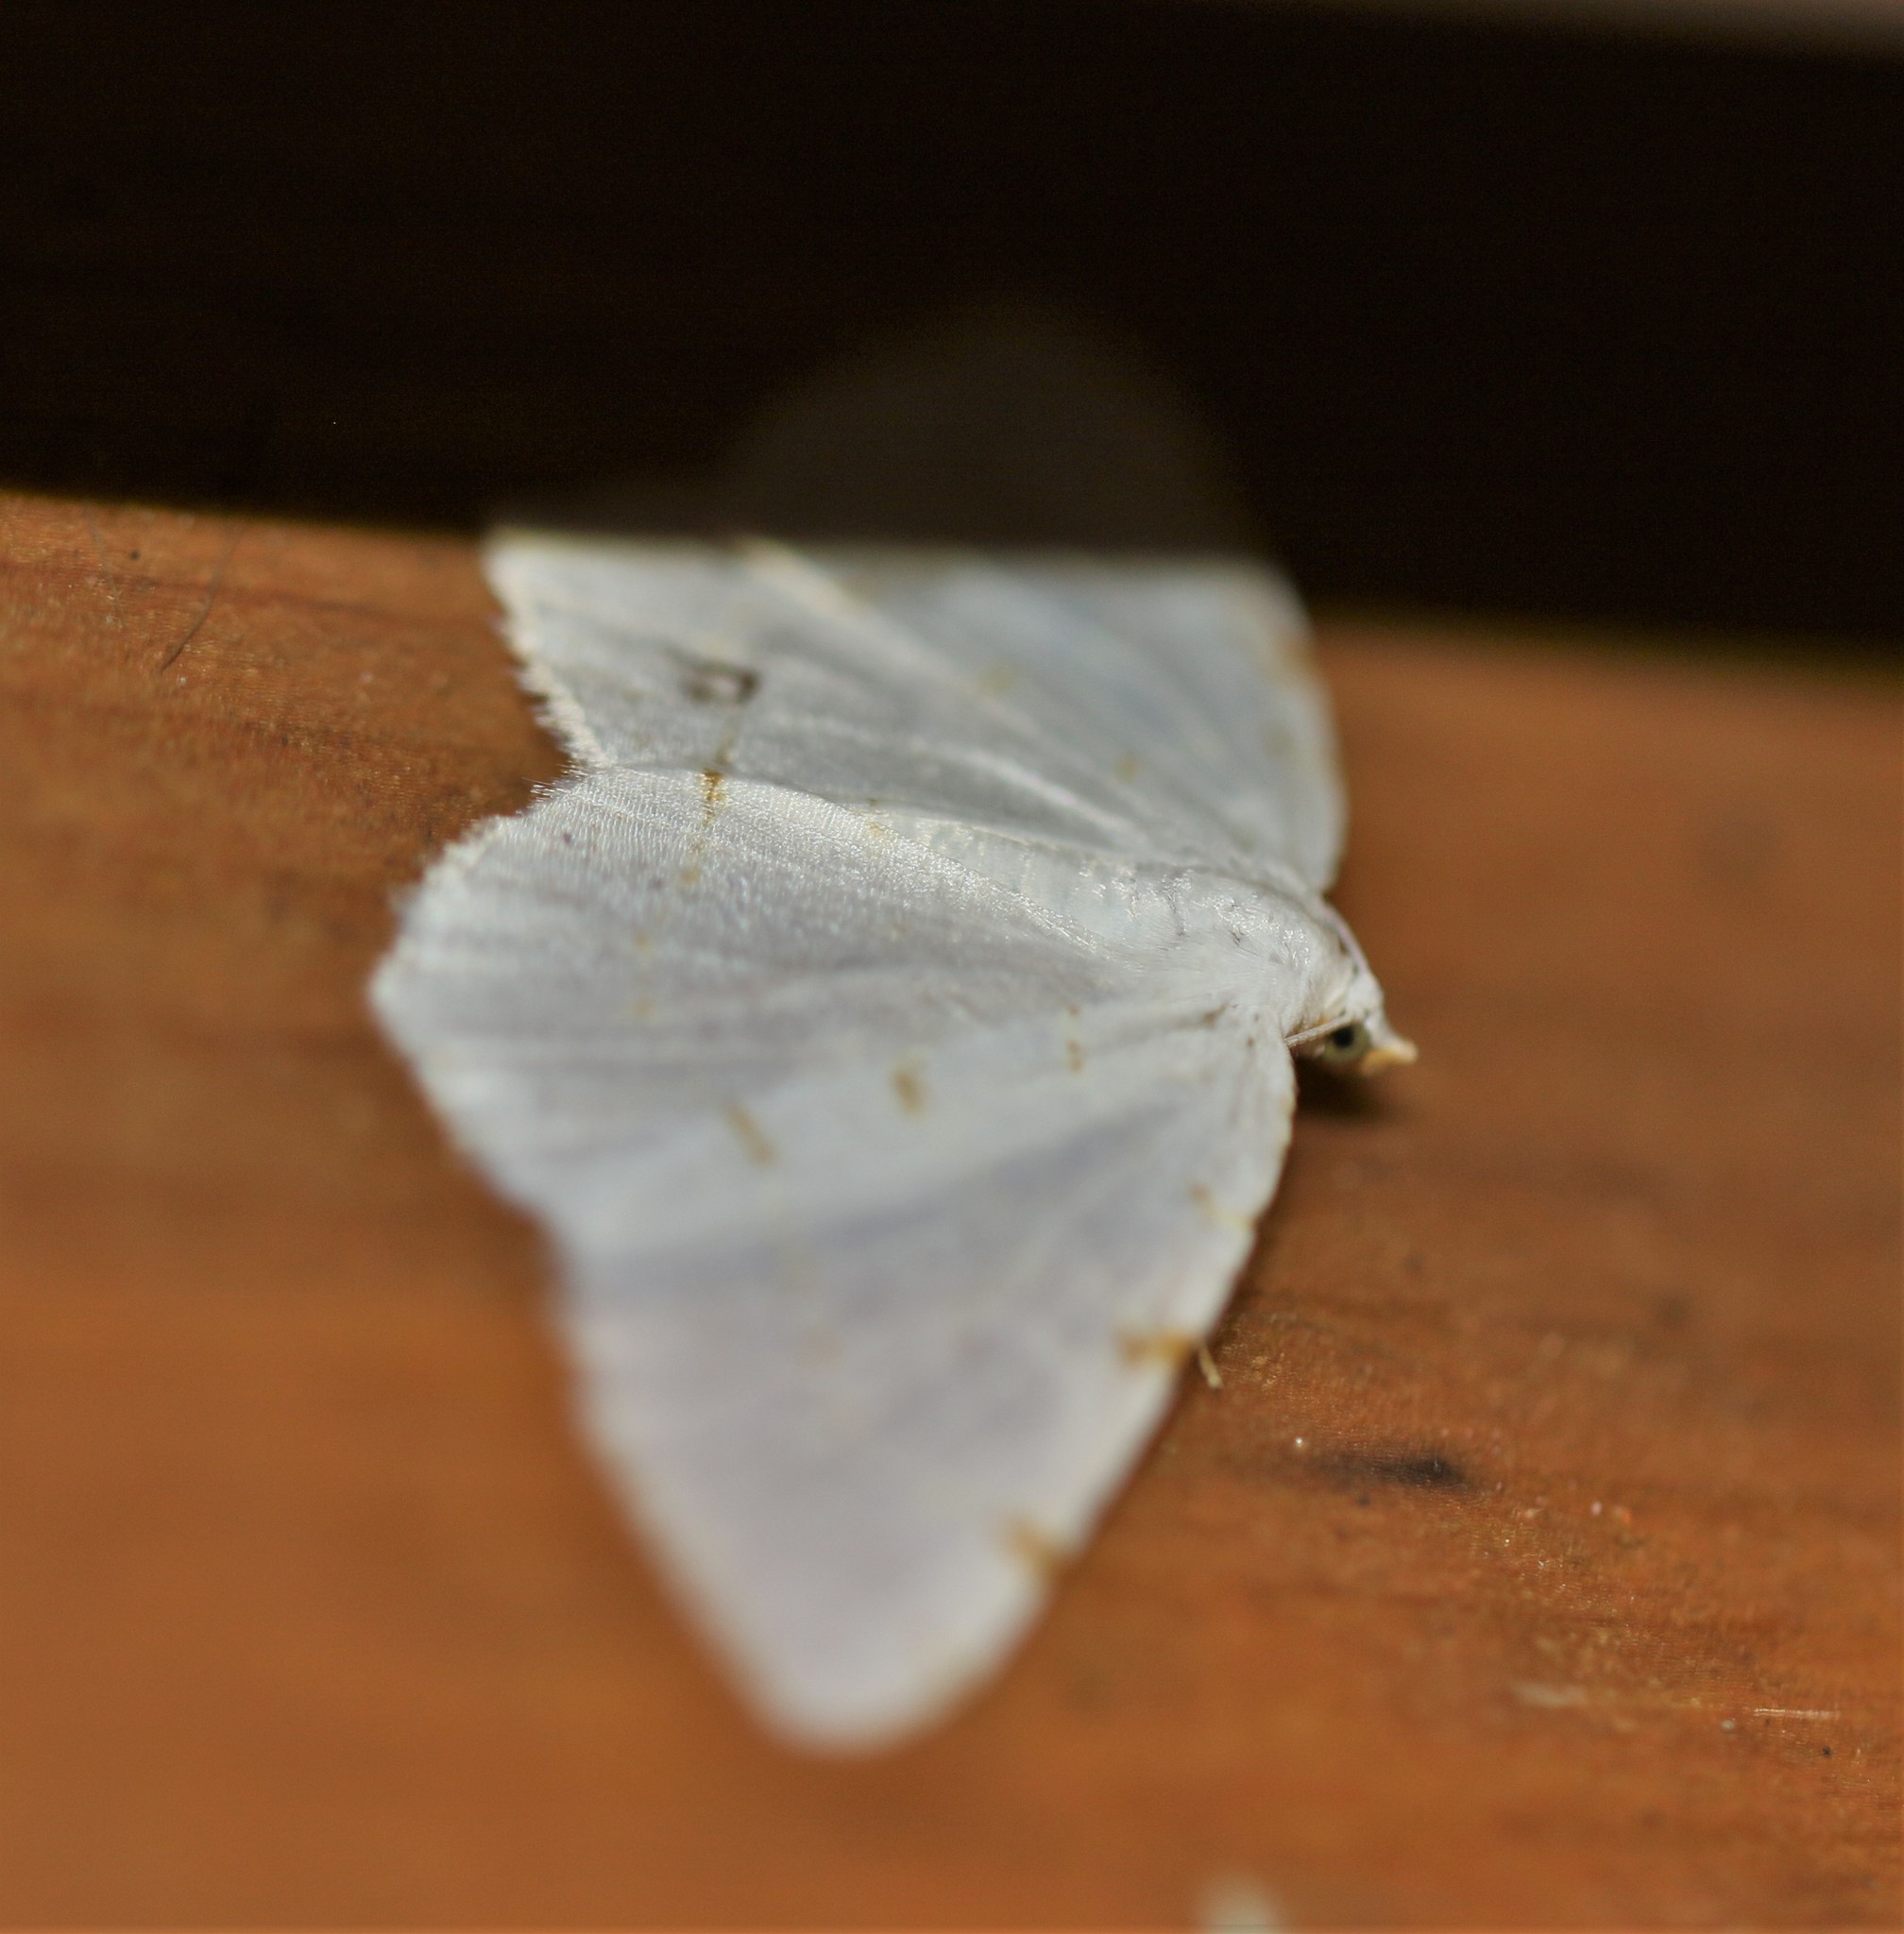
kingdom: Animalia
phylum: Arthropoda
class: Insecta
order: Lepidoptera
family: Geometridae
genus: Macaria
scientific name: Macaria pustularia
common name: Lesser maple spanworm moth
